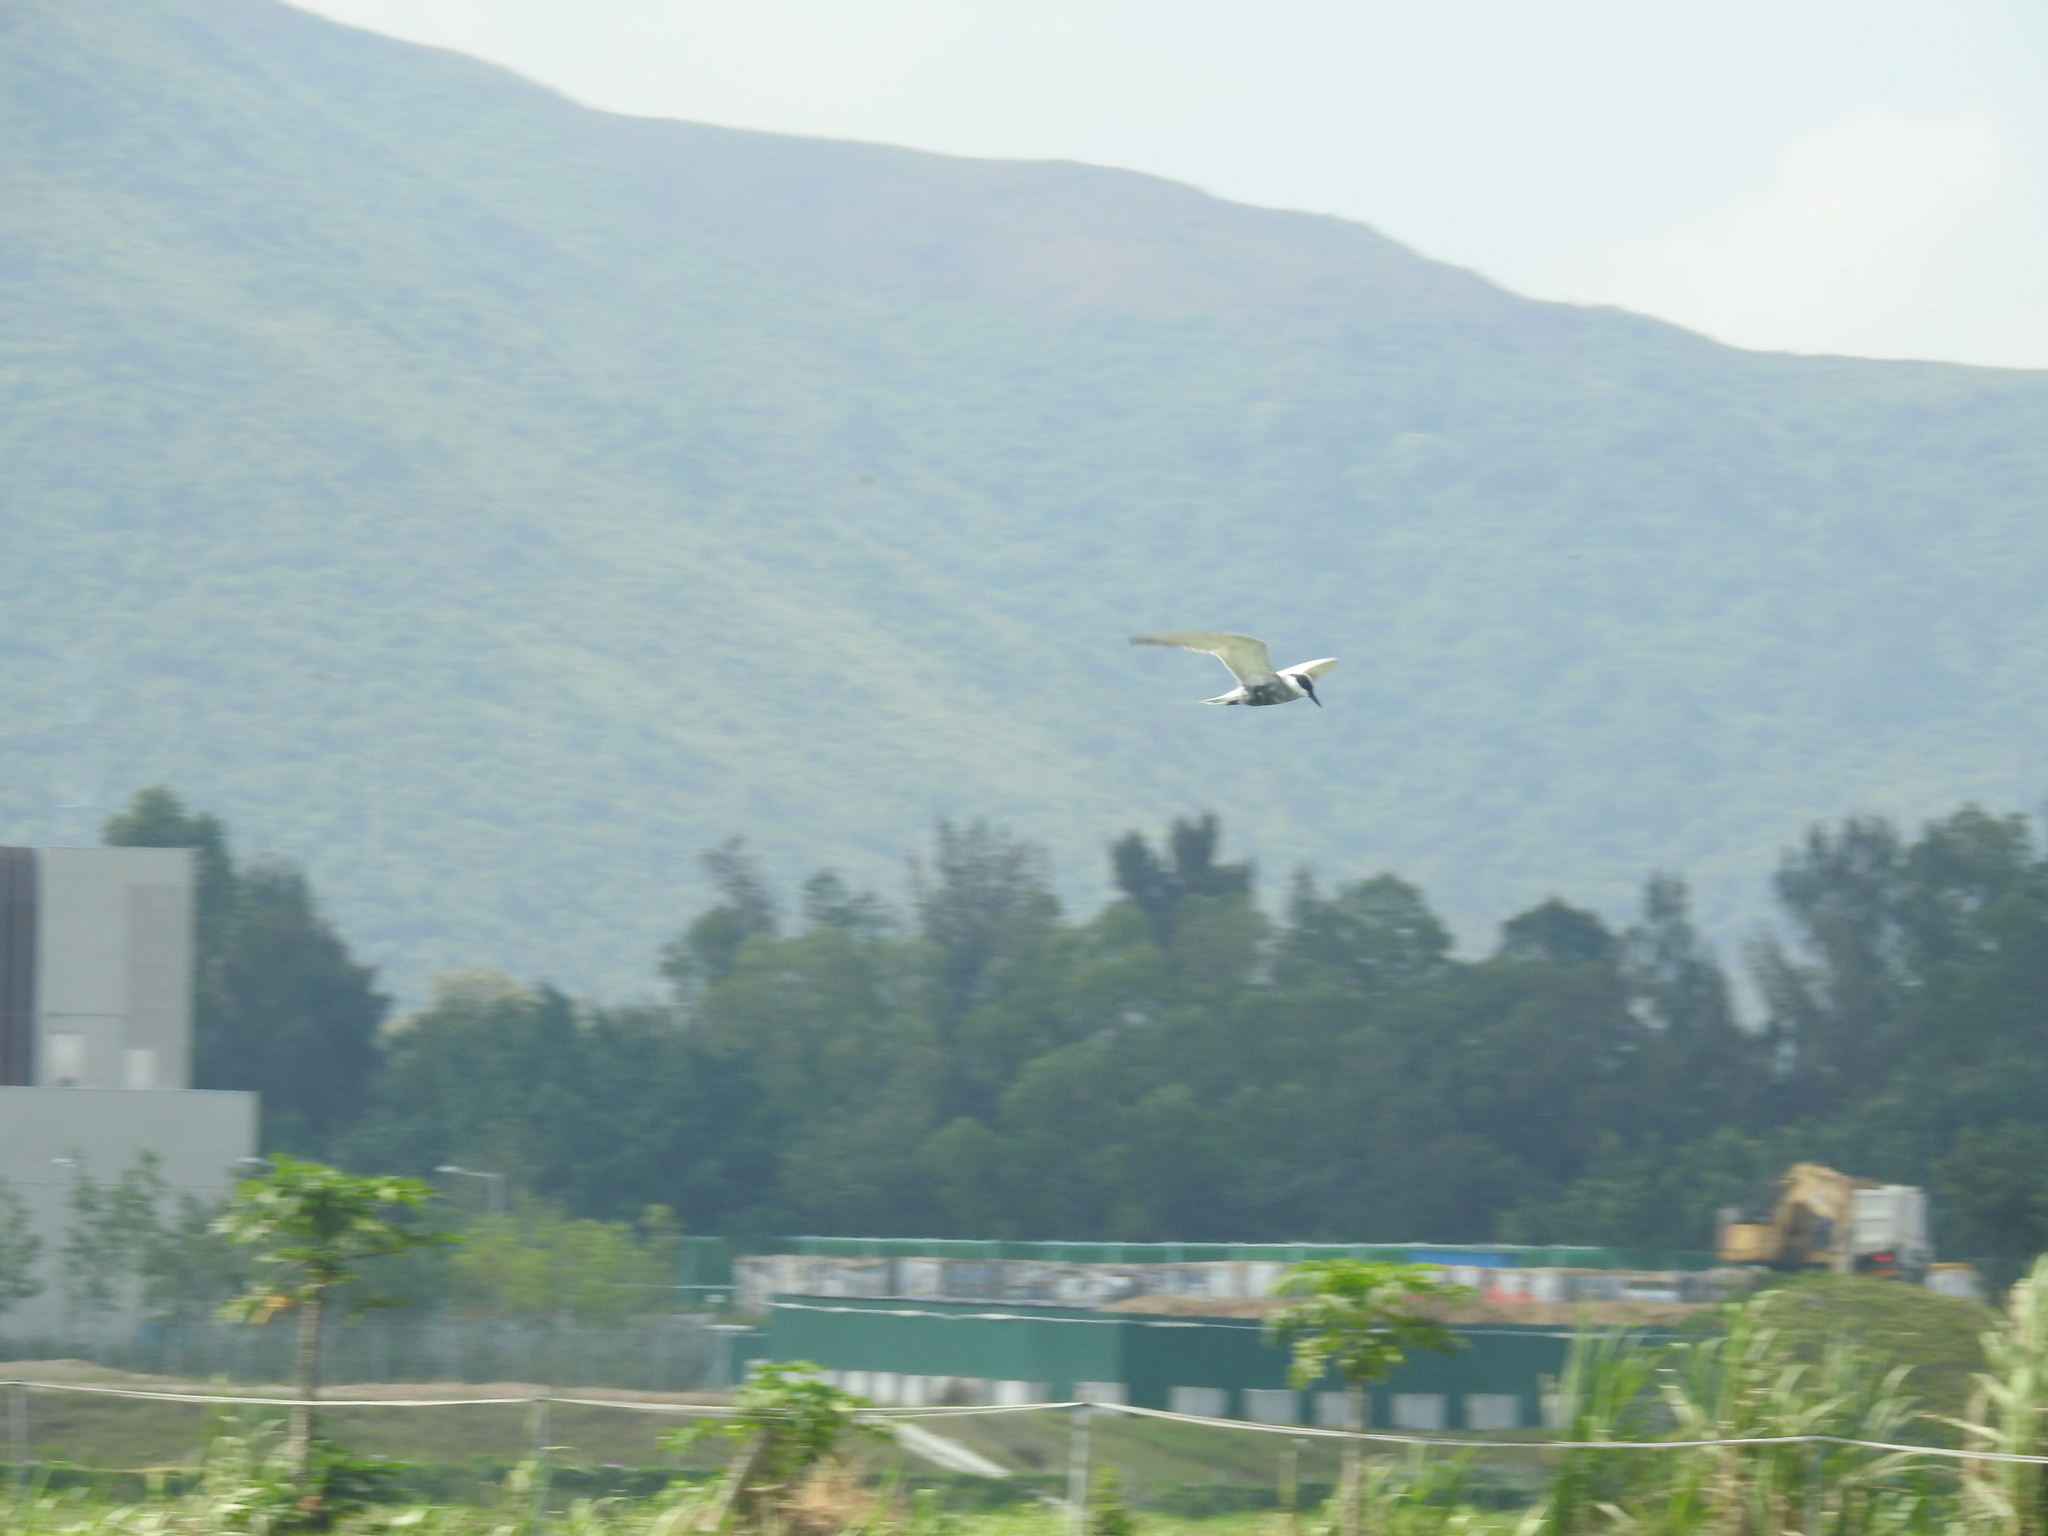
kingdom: Animalia
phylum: Chordata
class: Aves
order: Charadriiformes
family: Laridae
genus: Chlidonias
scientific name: Chlidonias hybrida
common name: Whiskered tern
